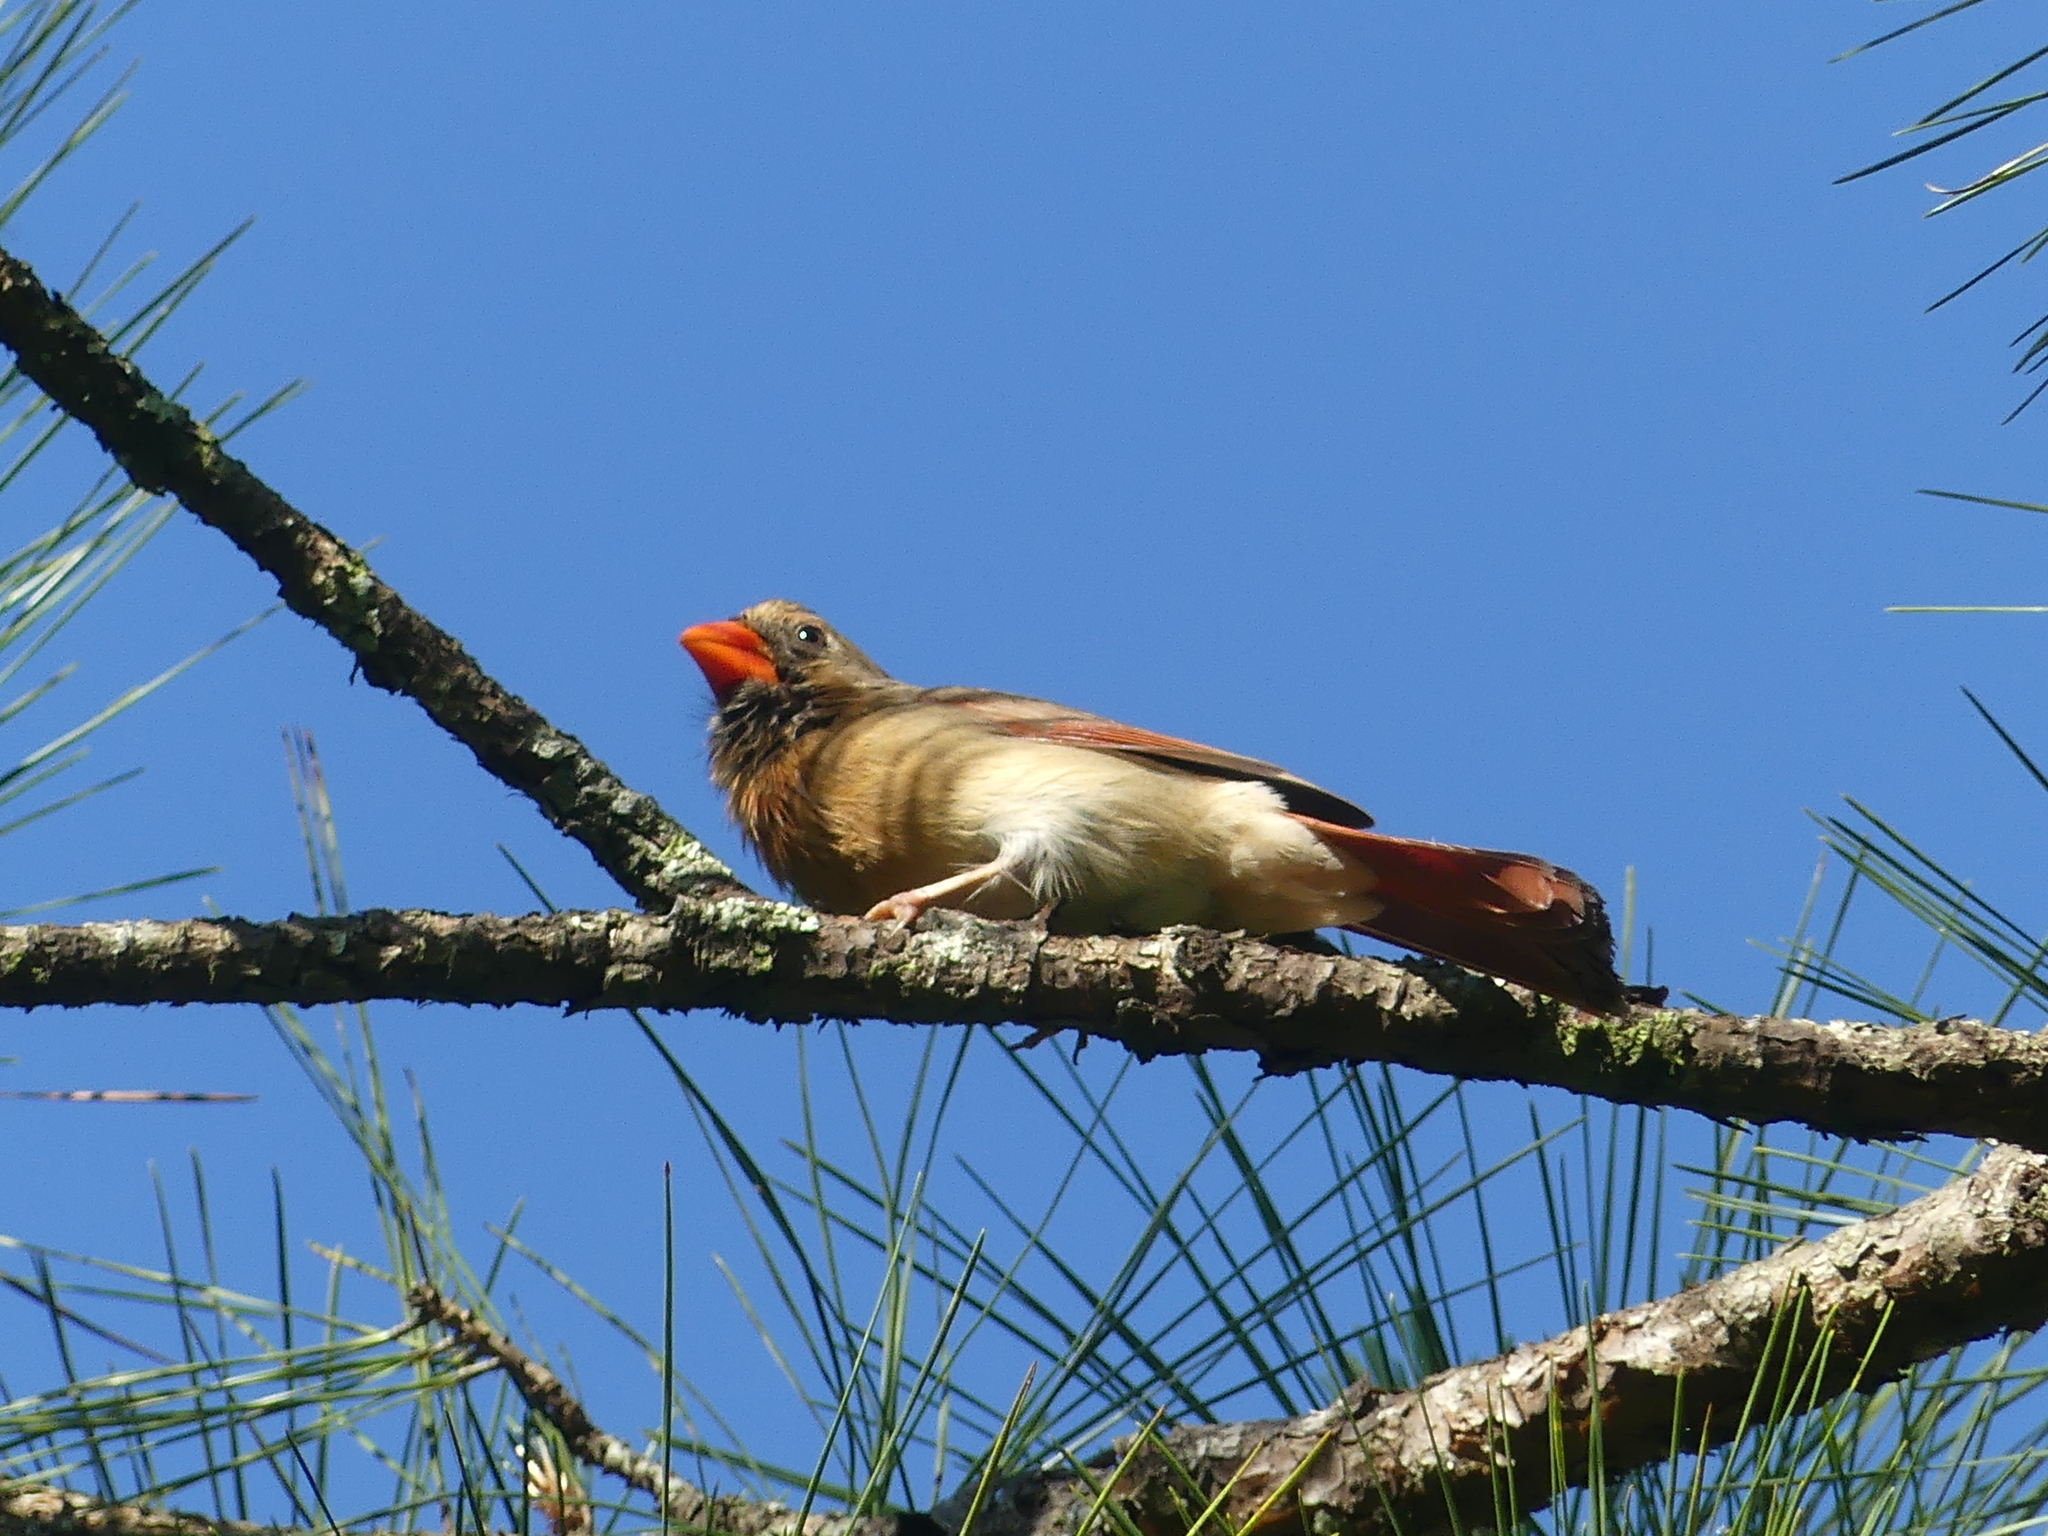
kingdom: Animalia
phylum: Chordata
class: Aves
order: Passeriformes
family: Cardinalidae
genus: Cardinalis
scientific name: Cardinalis cardinalis
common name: Northern cardinal
